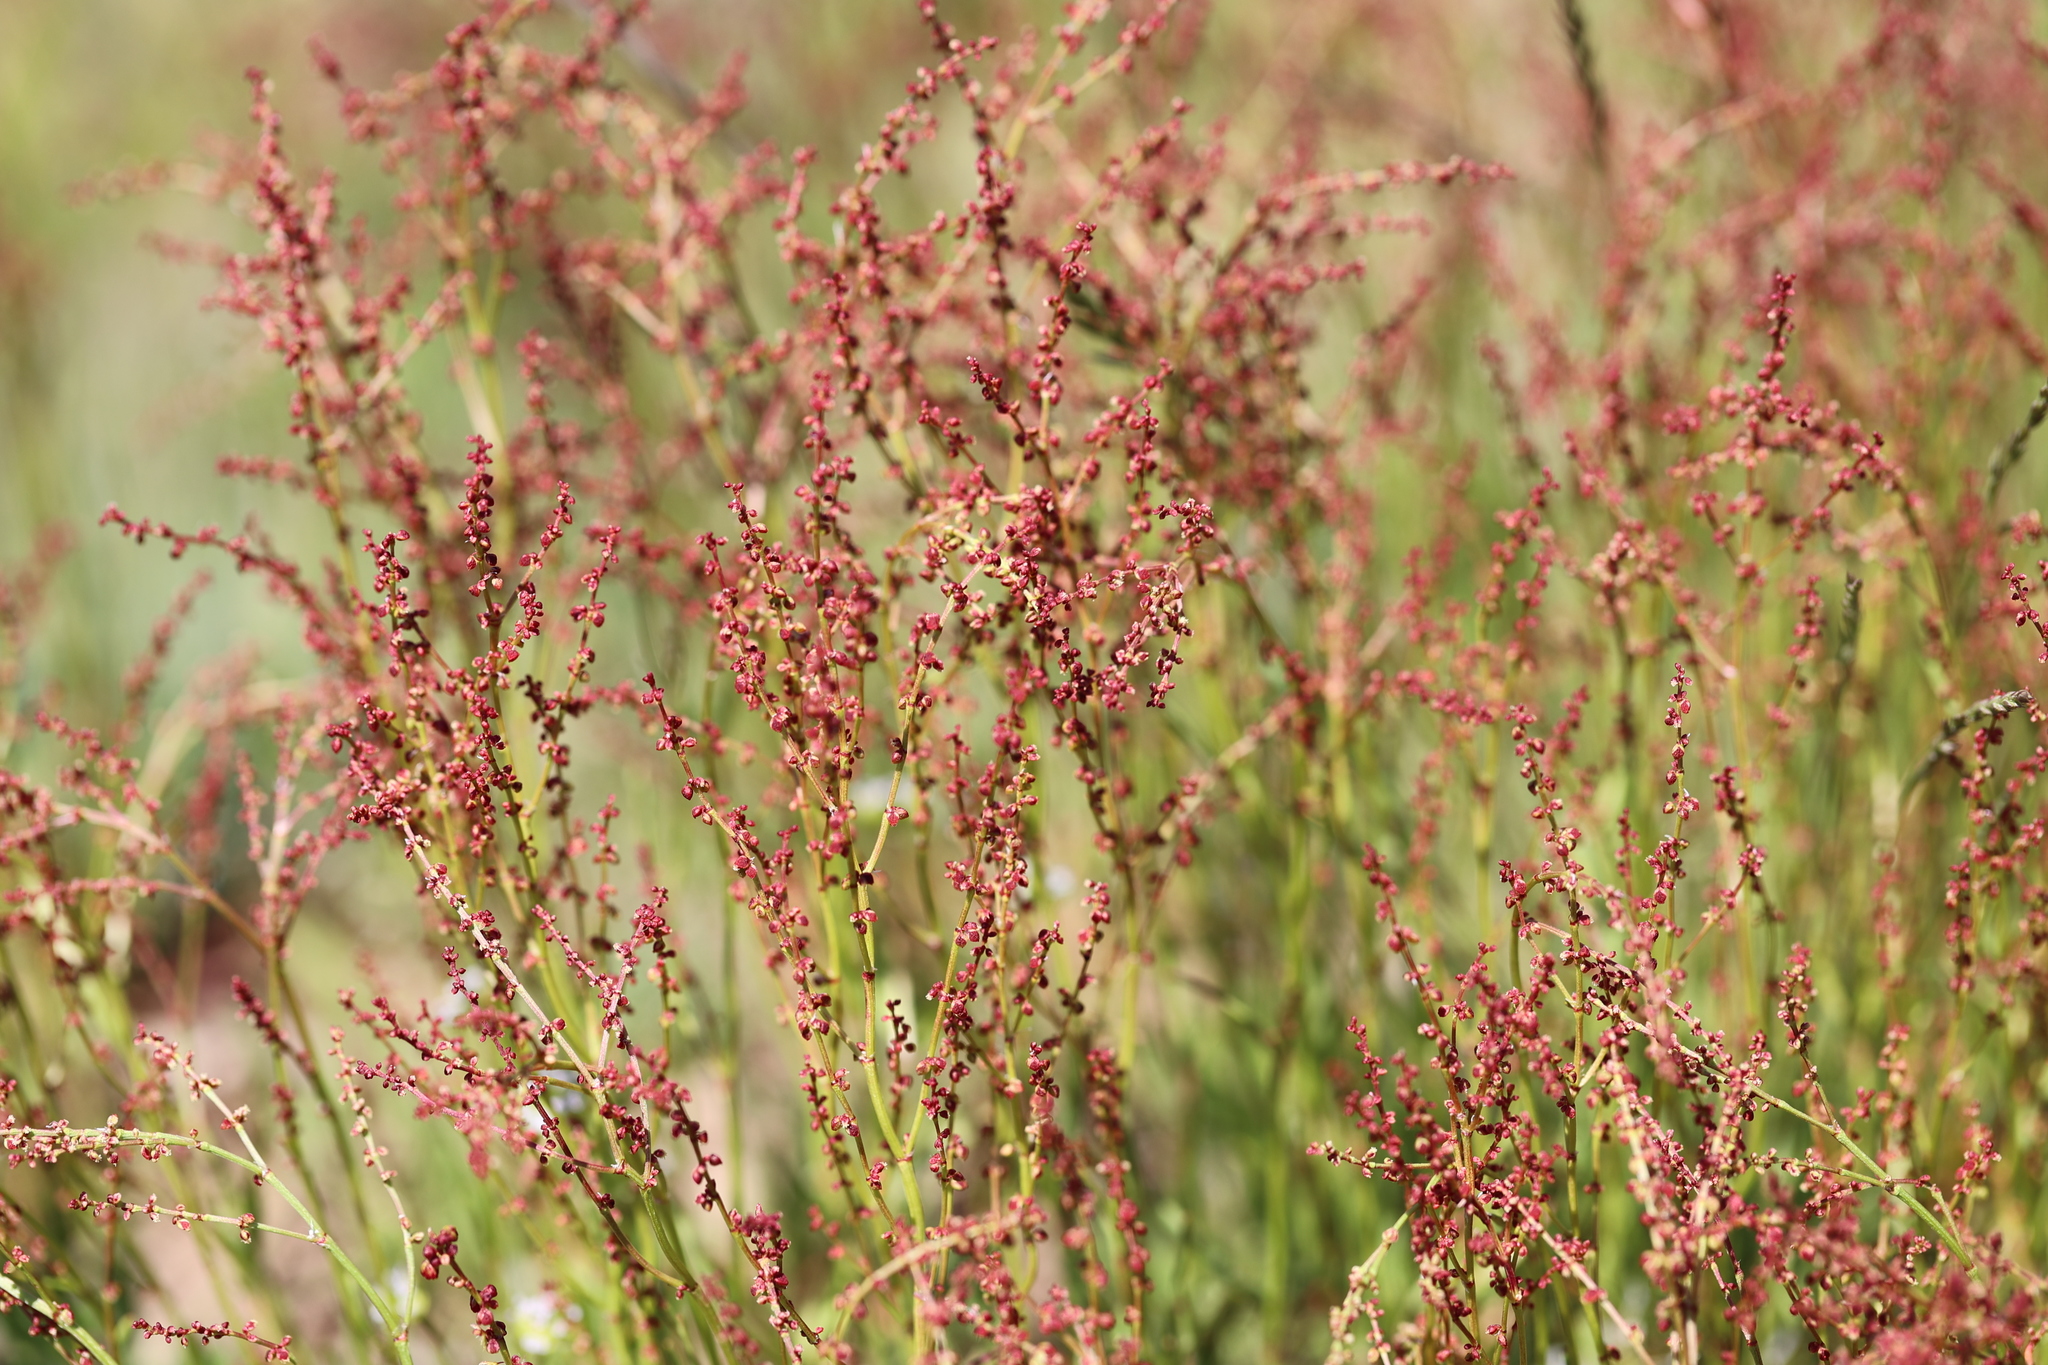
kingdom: Plantae
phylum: Tracheophyta
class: Magnoliopsida
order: Caryophyllales
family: Polygonaceae
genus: Rumex
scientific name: Rumex acetosella
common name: Common sheep sorrel
